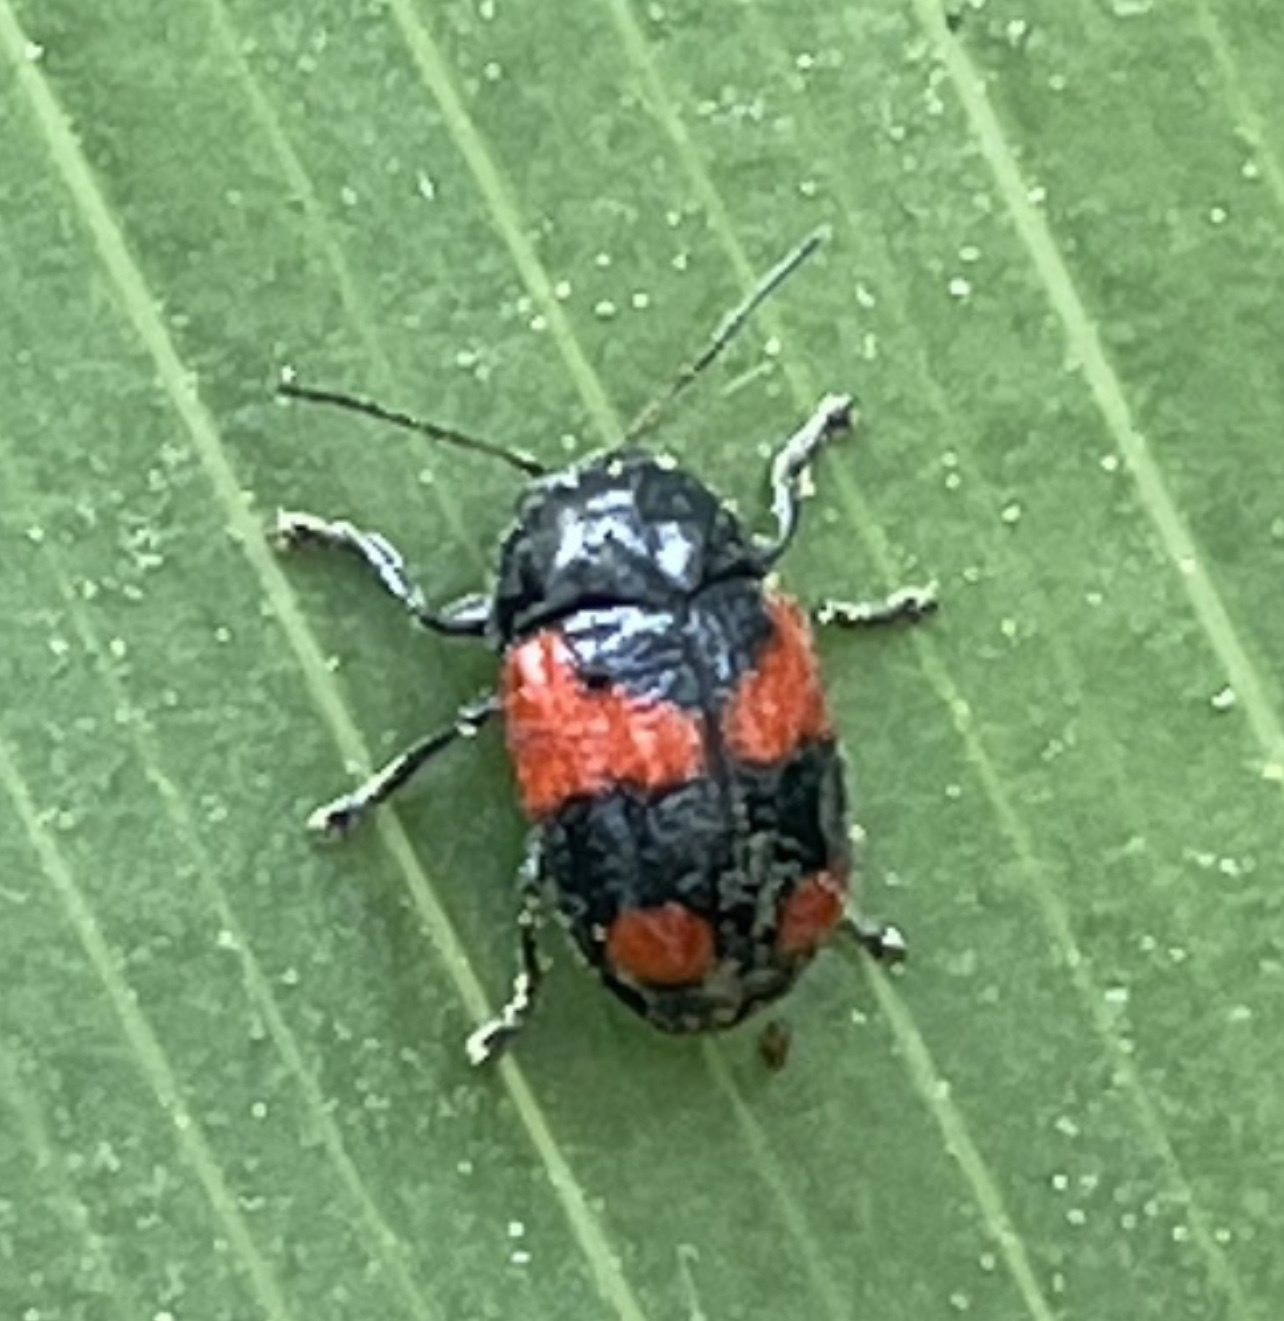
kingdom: Animalia
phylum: Arthropoda
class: Insecta
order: Coleoptera
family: Chrysomelidae
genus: Cryptocephalus
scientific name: Cryptocephalus binominis
